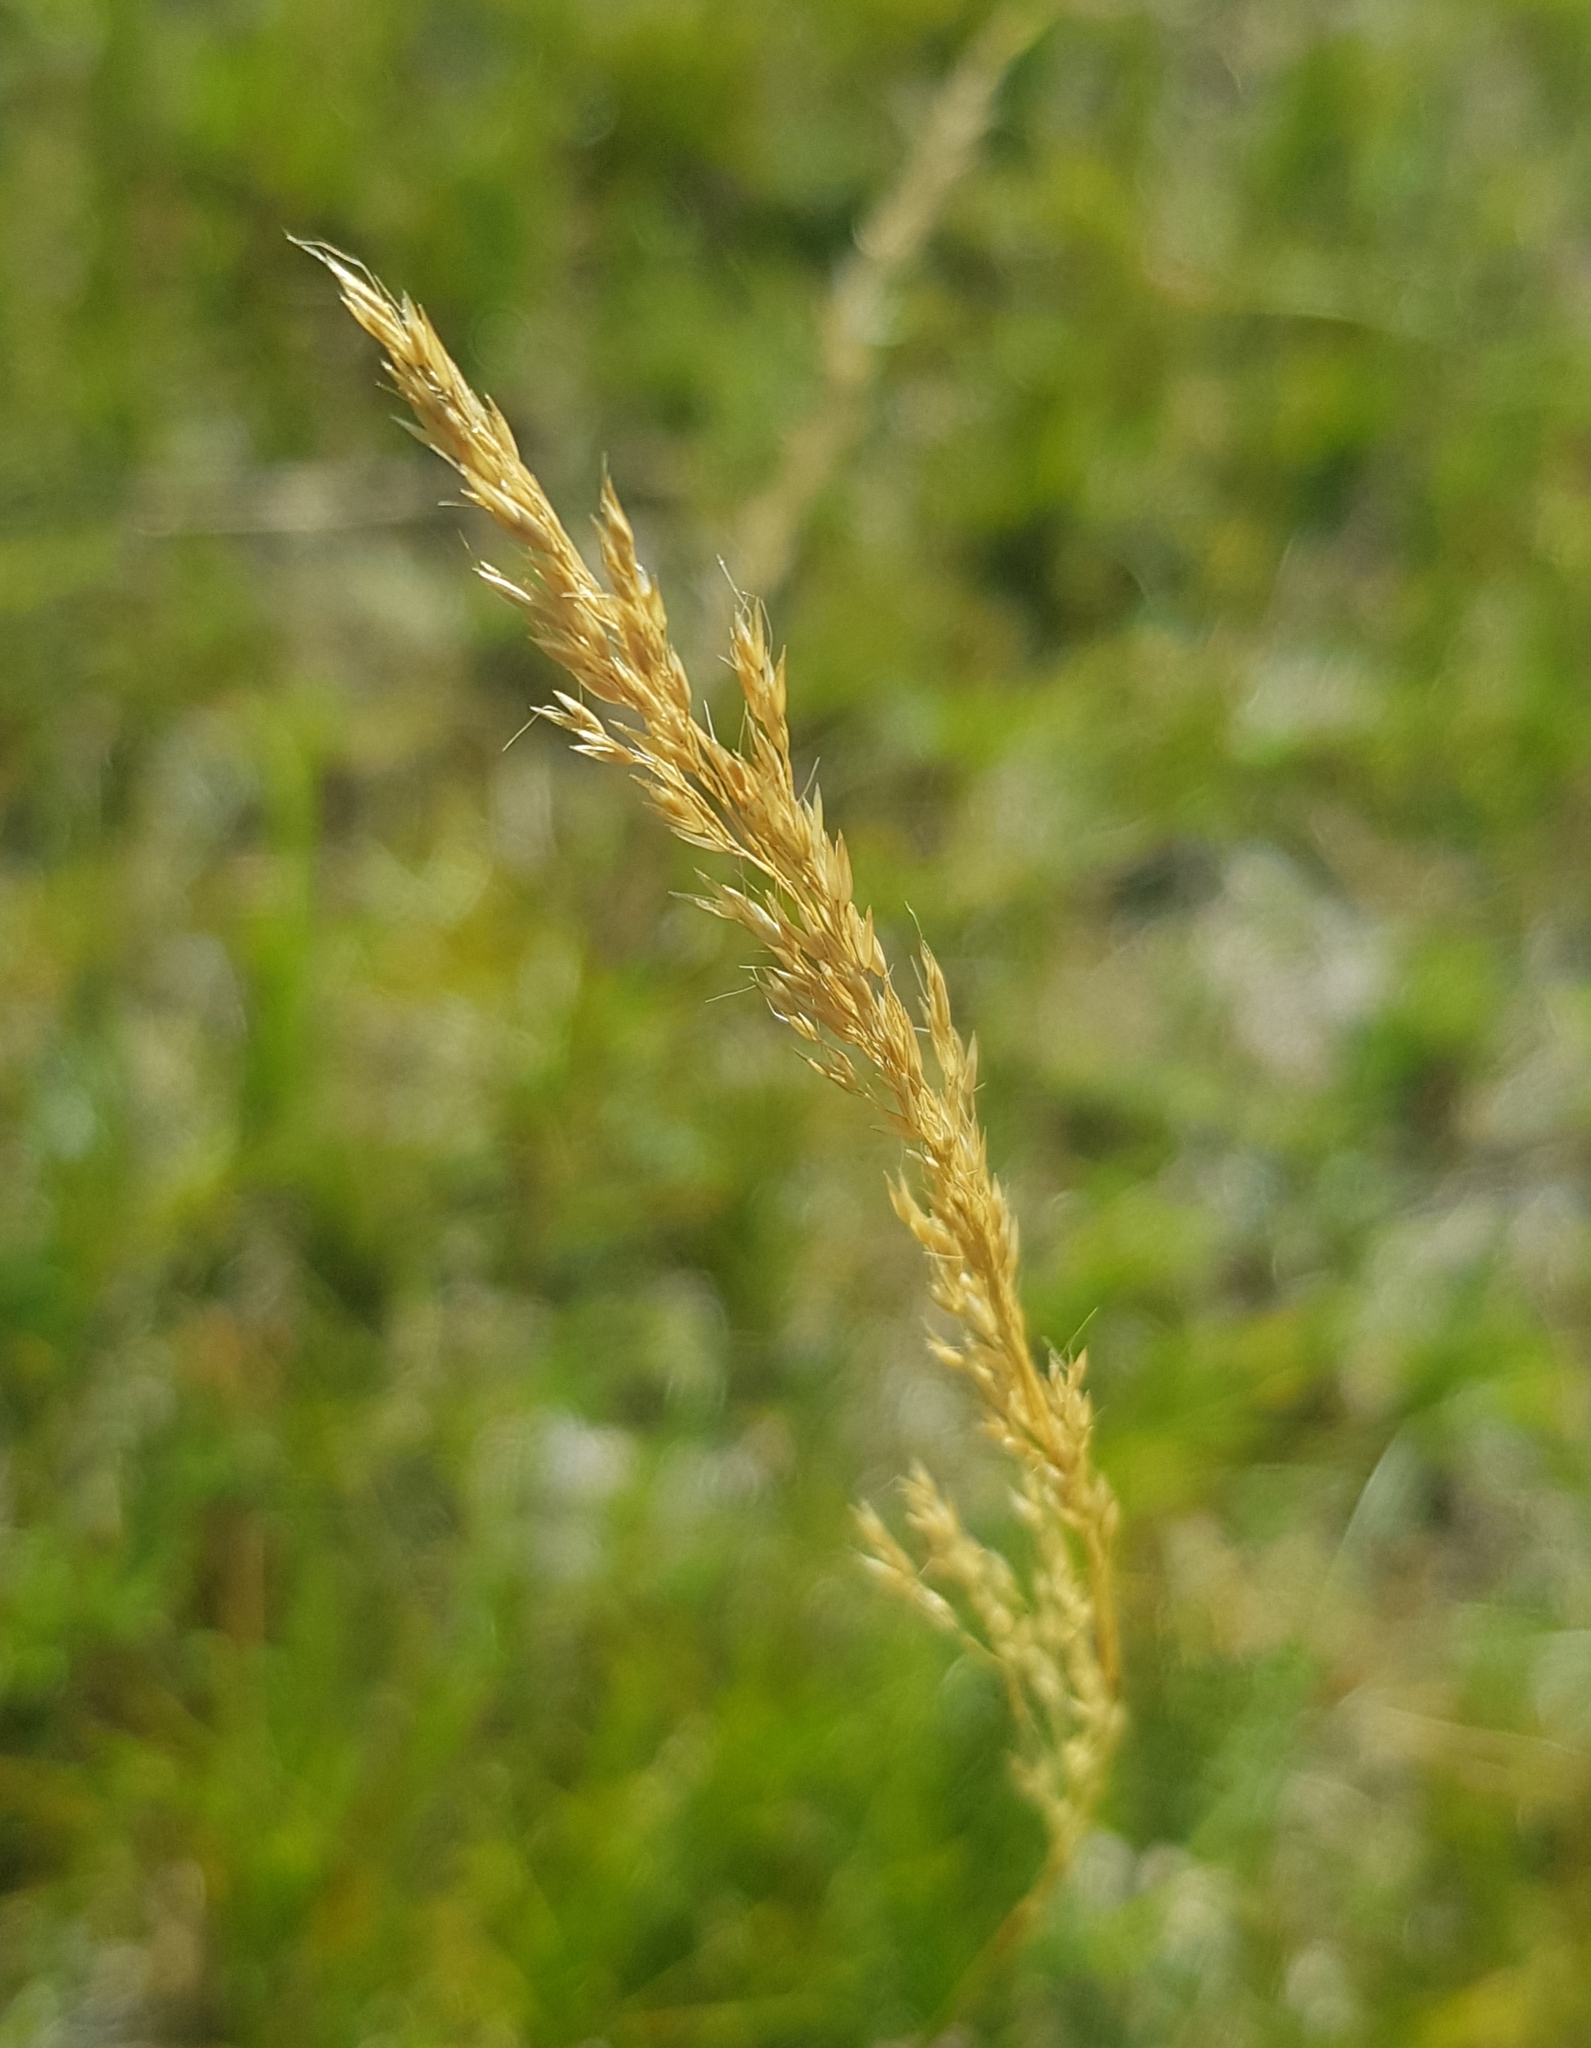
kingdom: Plantae
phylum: Tracheophyta
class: Liliopsida
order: Poales
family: Poaceae
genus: Calamagrostis
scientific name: Calamagrostis stricta
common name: Narrow small-reed
